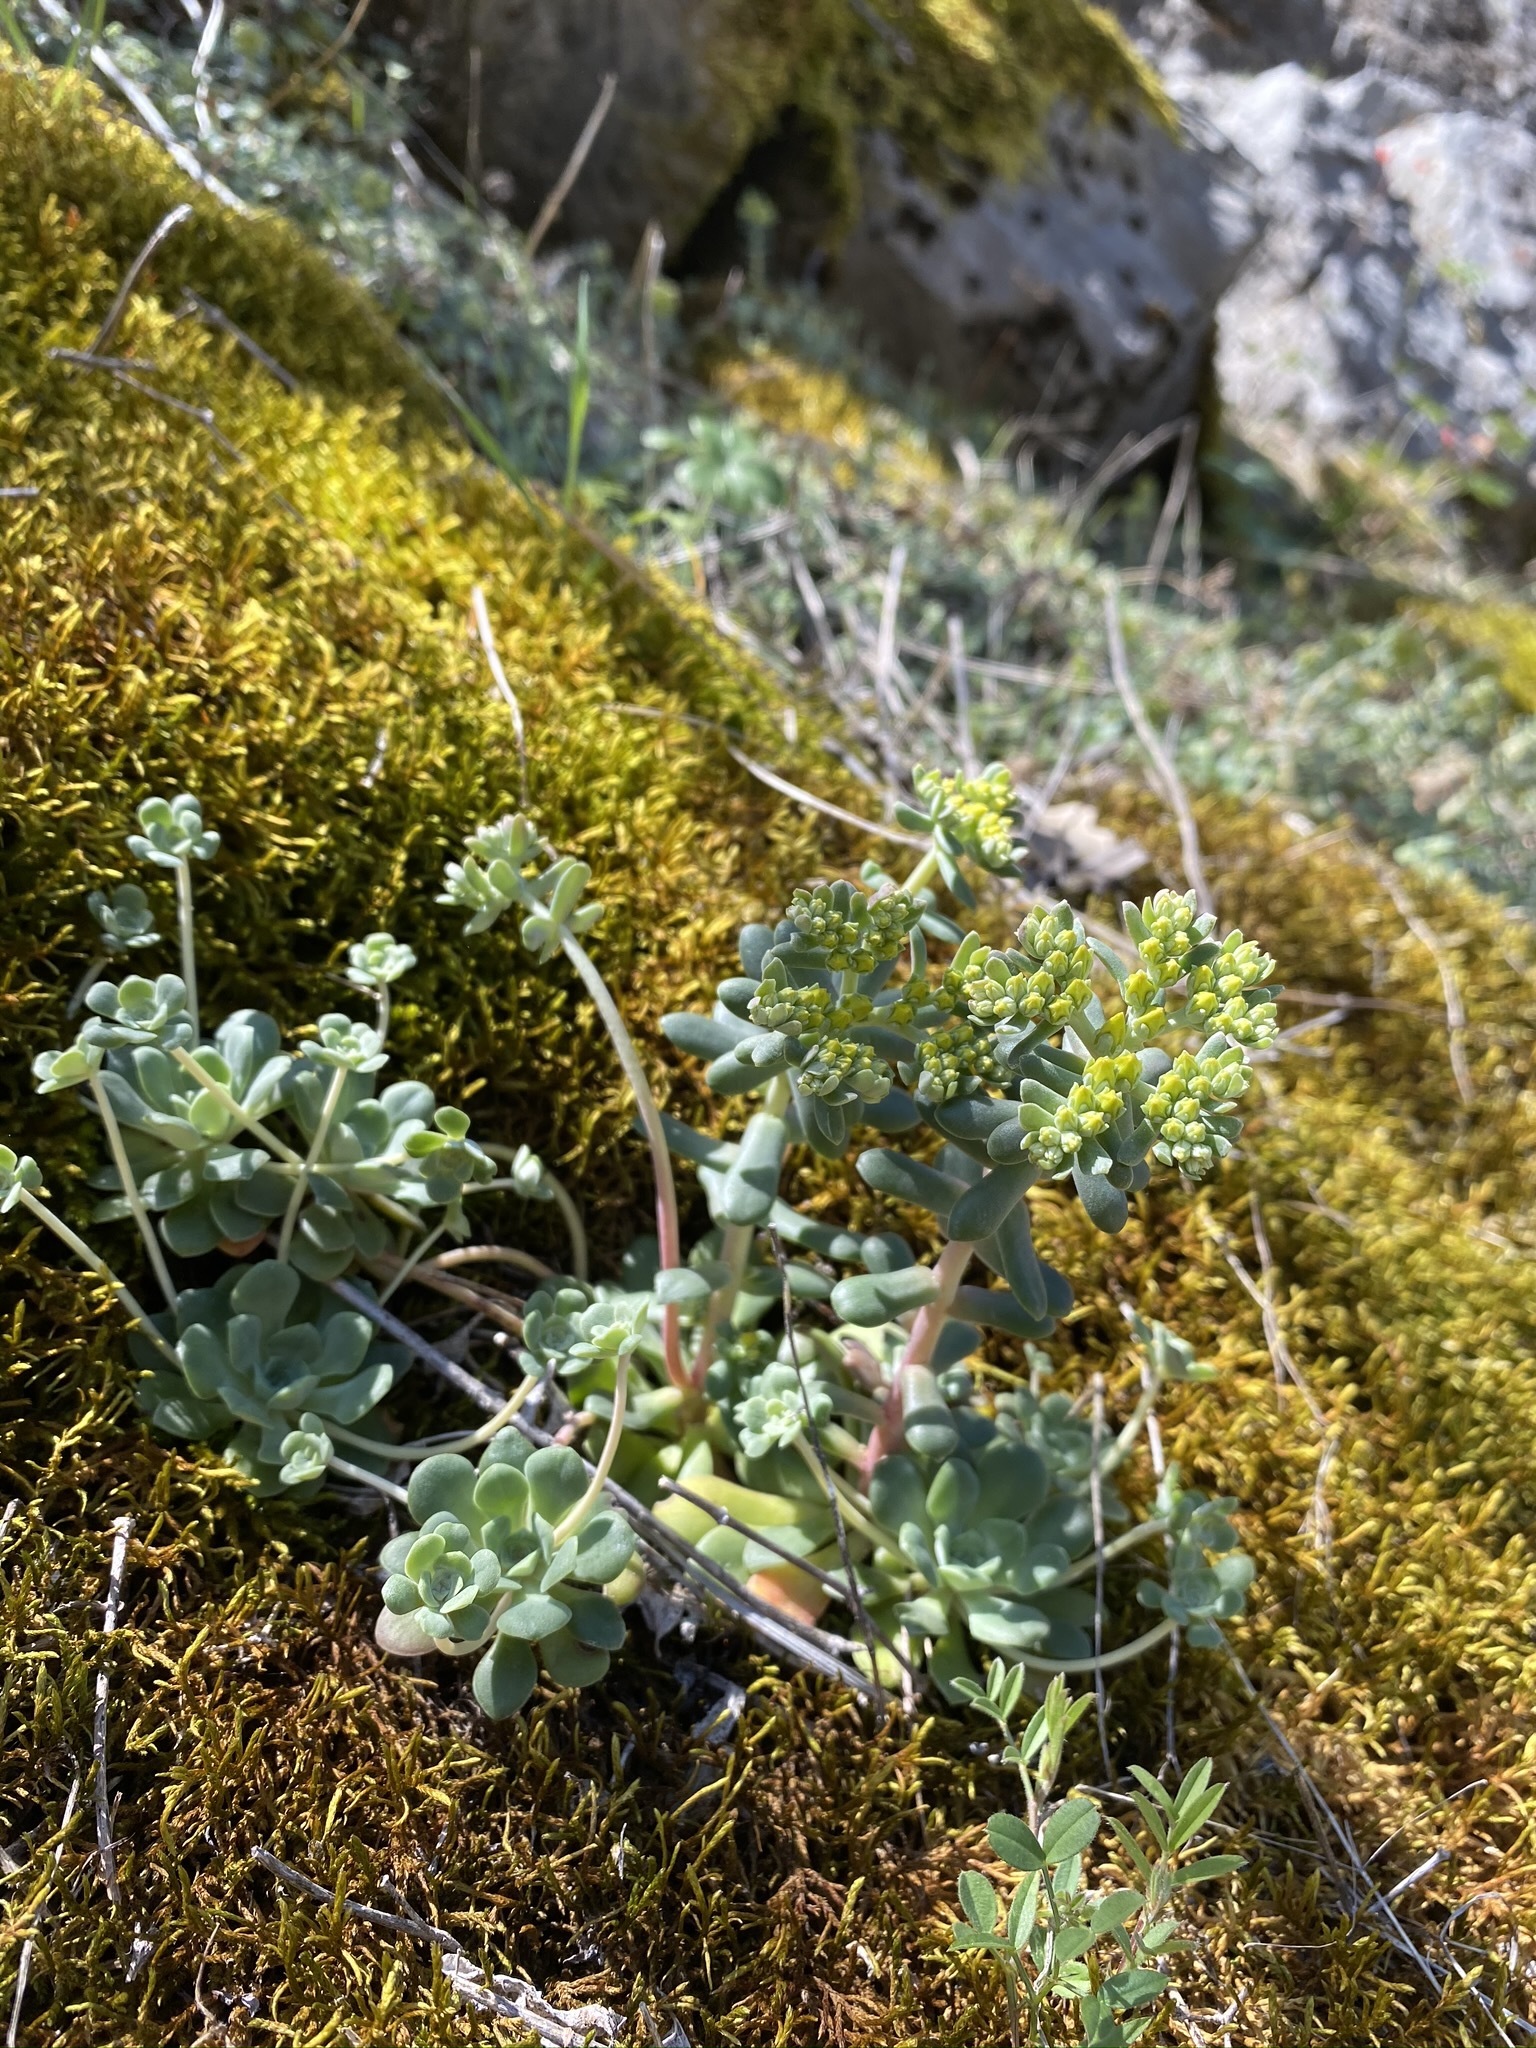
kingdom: Plantae
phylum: Tracheophyta
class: Magnoliopsida
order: Saxifragales
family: Crassulaceae
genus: Sedum
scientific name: Sedum spathulifolium
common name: Colorado stonecrop
